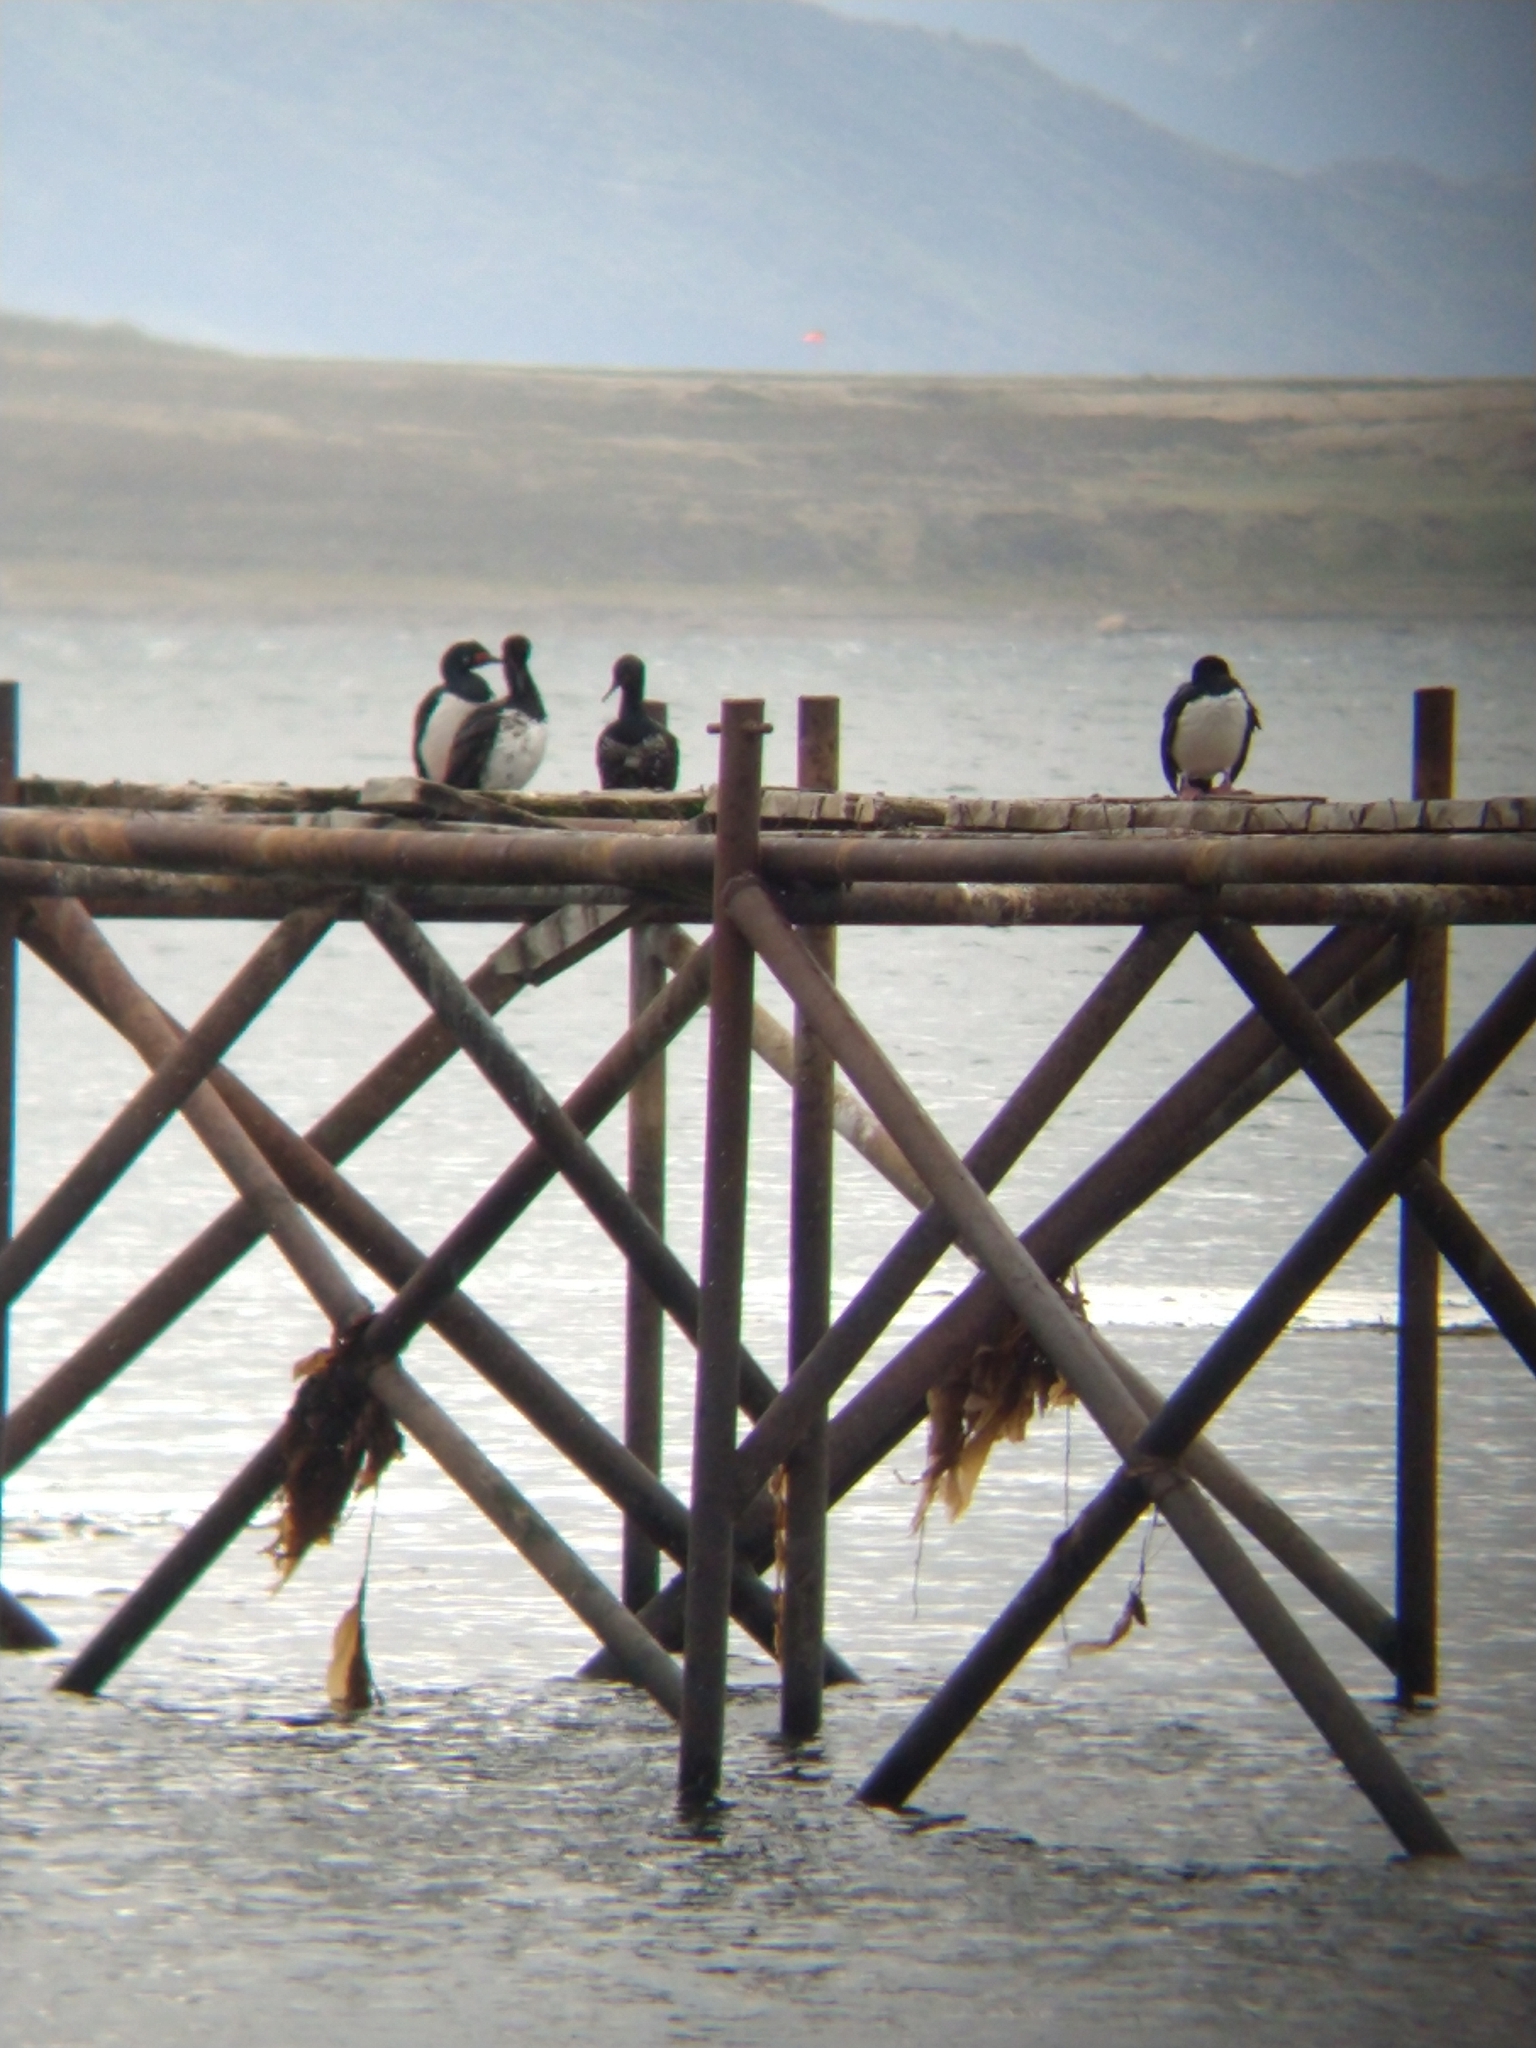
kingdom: Animalia
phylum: Chordata
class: Aves
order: Suliformes
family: Phalacrocoracidae
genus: Phalacrocorax
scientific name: Phalacrocorax magellanicus
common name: Rock shag
